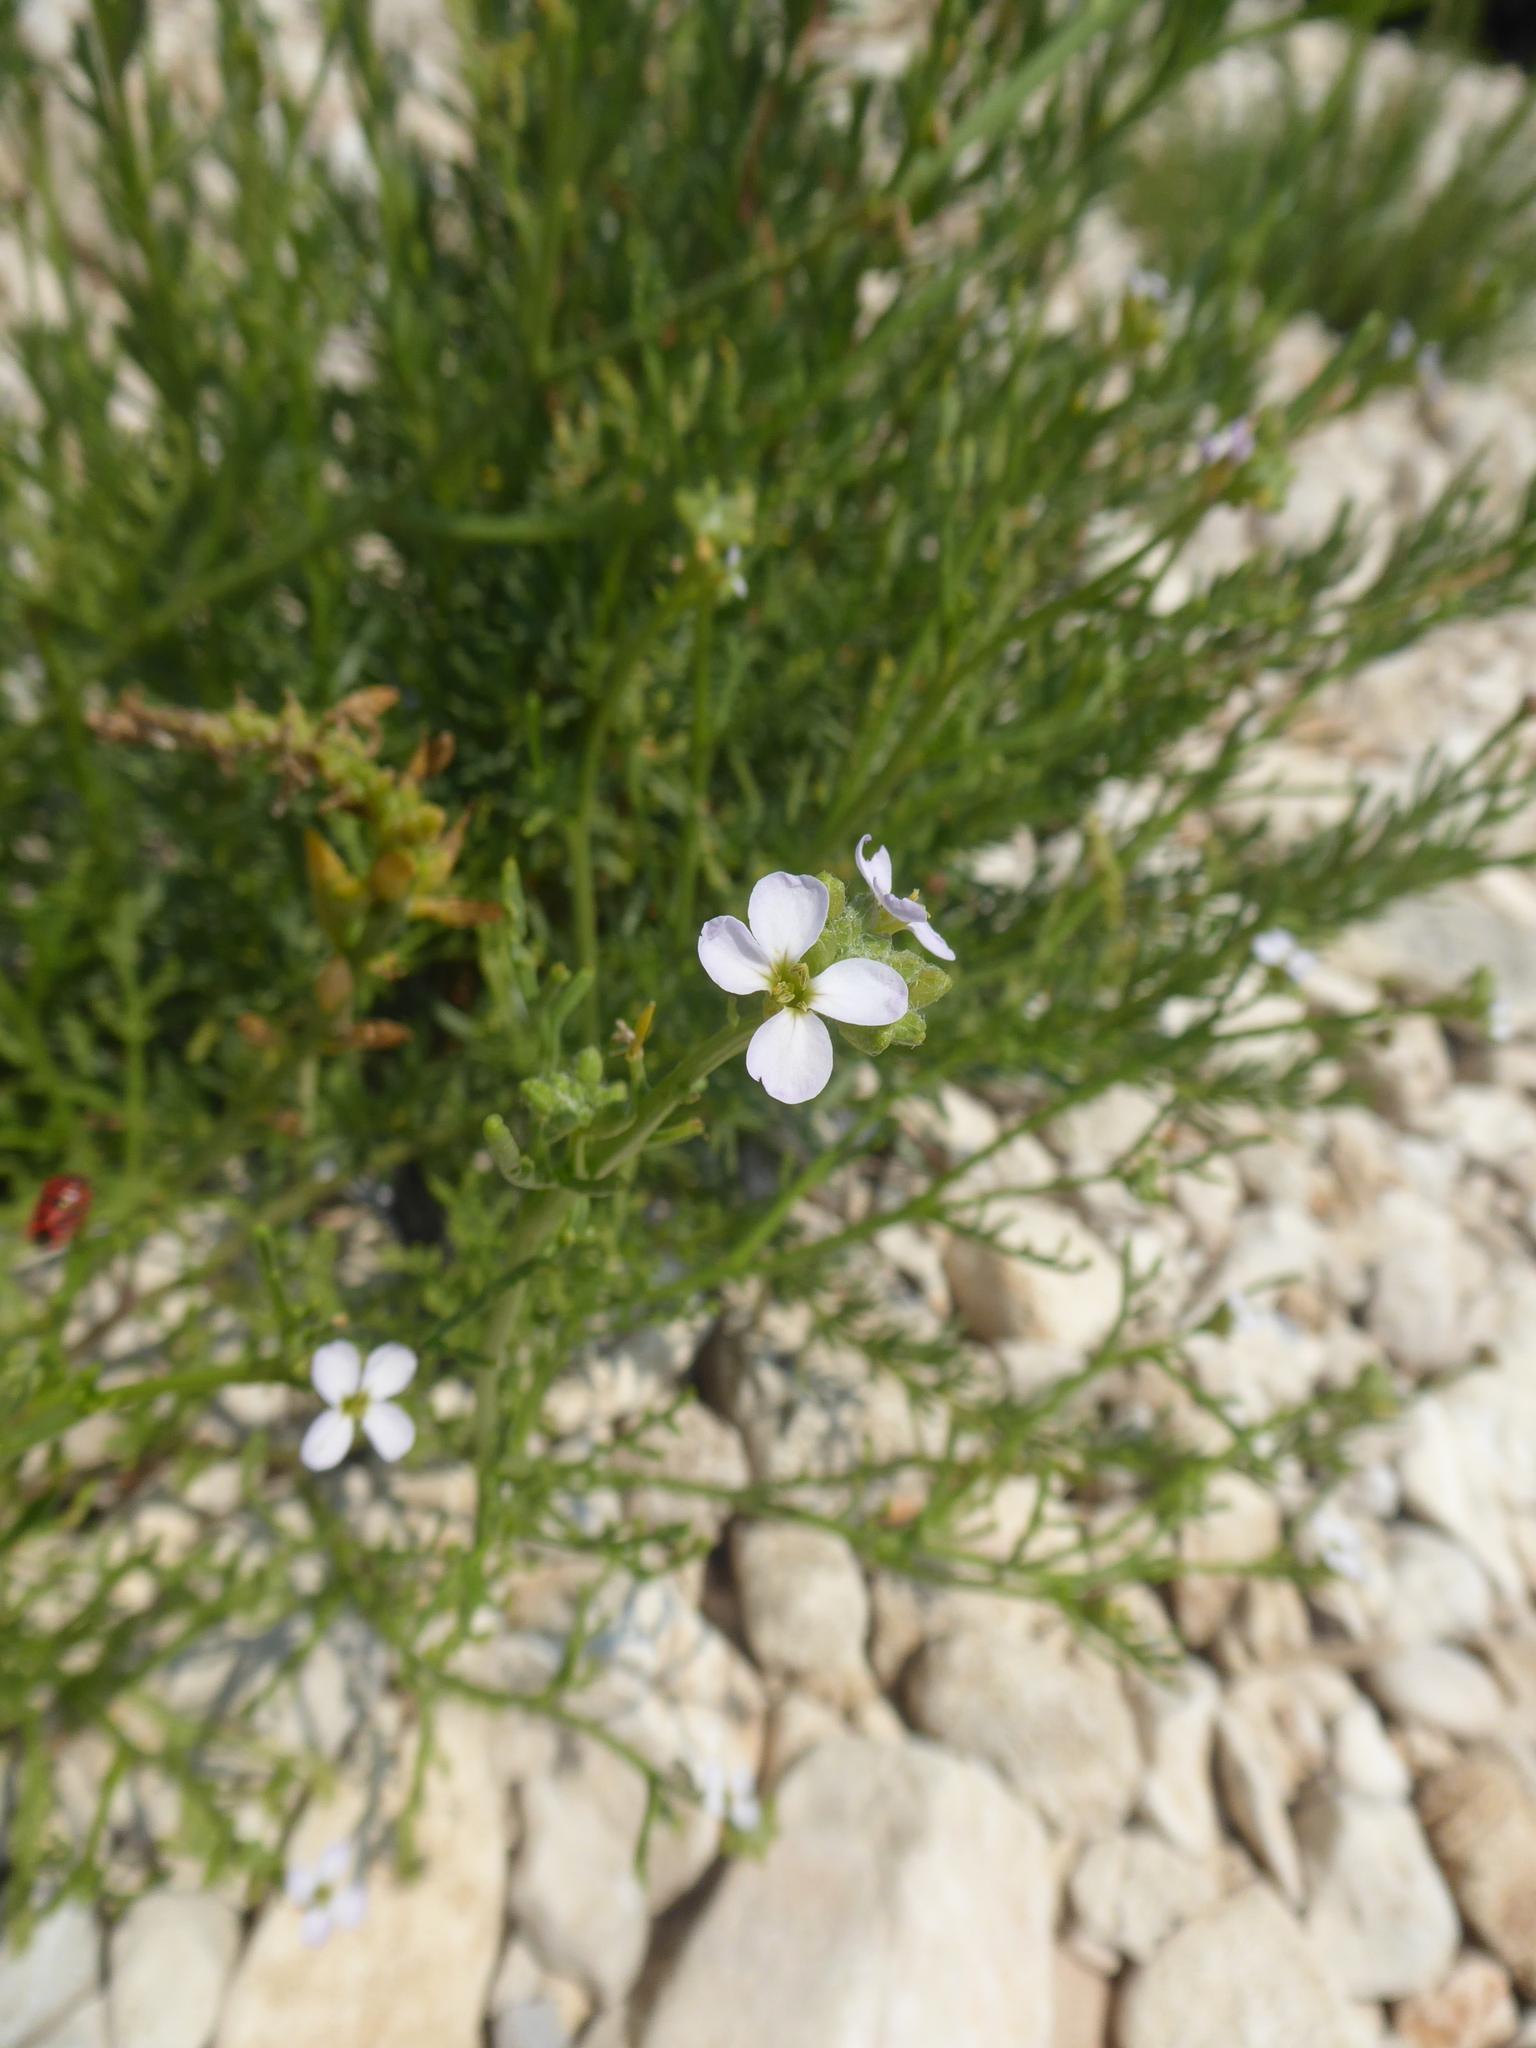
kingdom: Plantae
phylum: Tracheophyta
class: Magnoliopsida
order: Brassicales
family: Brassicaceae
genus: Cakile
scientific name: Cakile maritima
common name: Sea rocket
